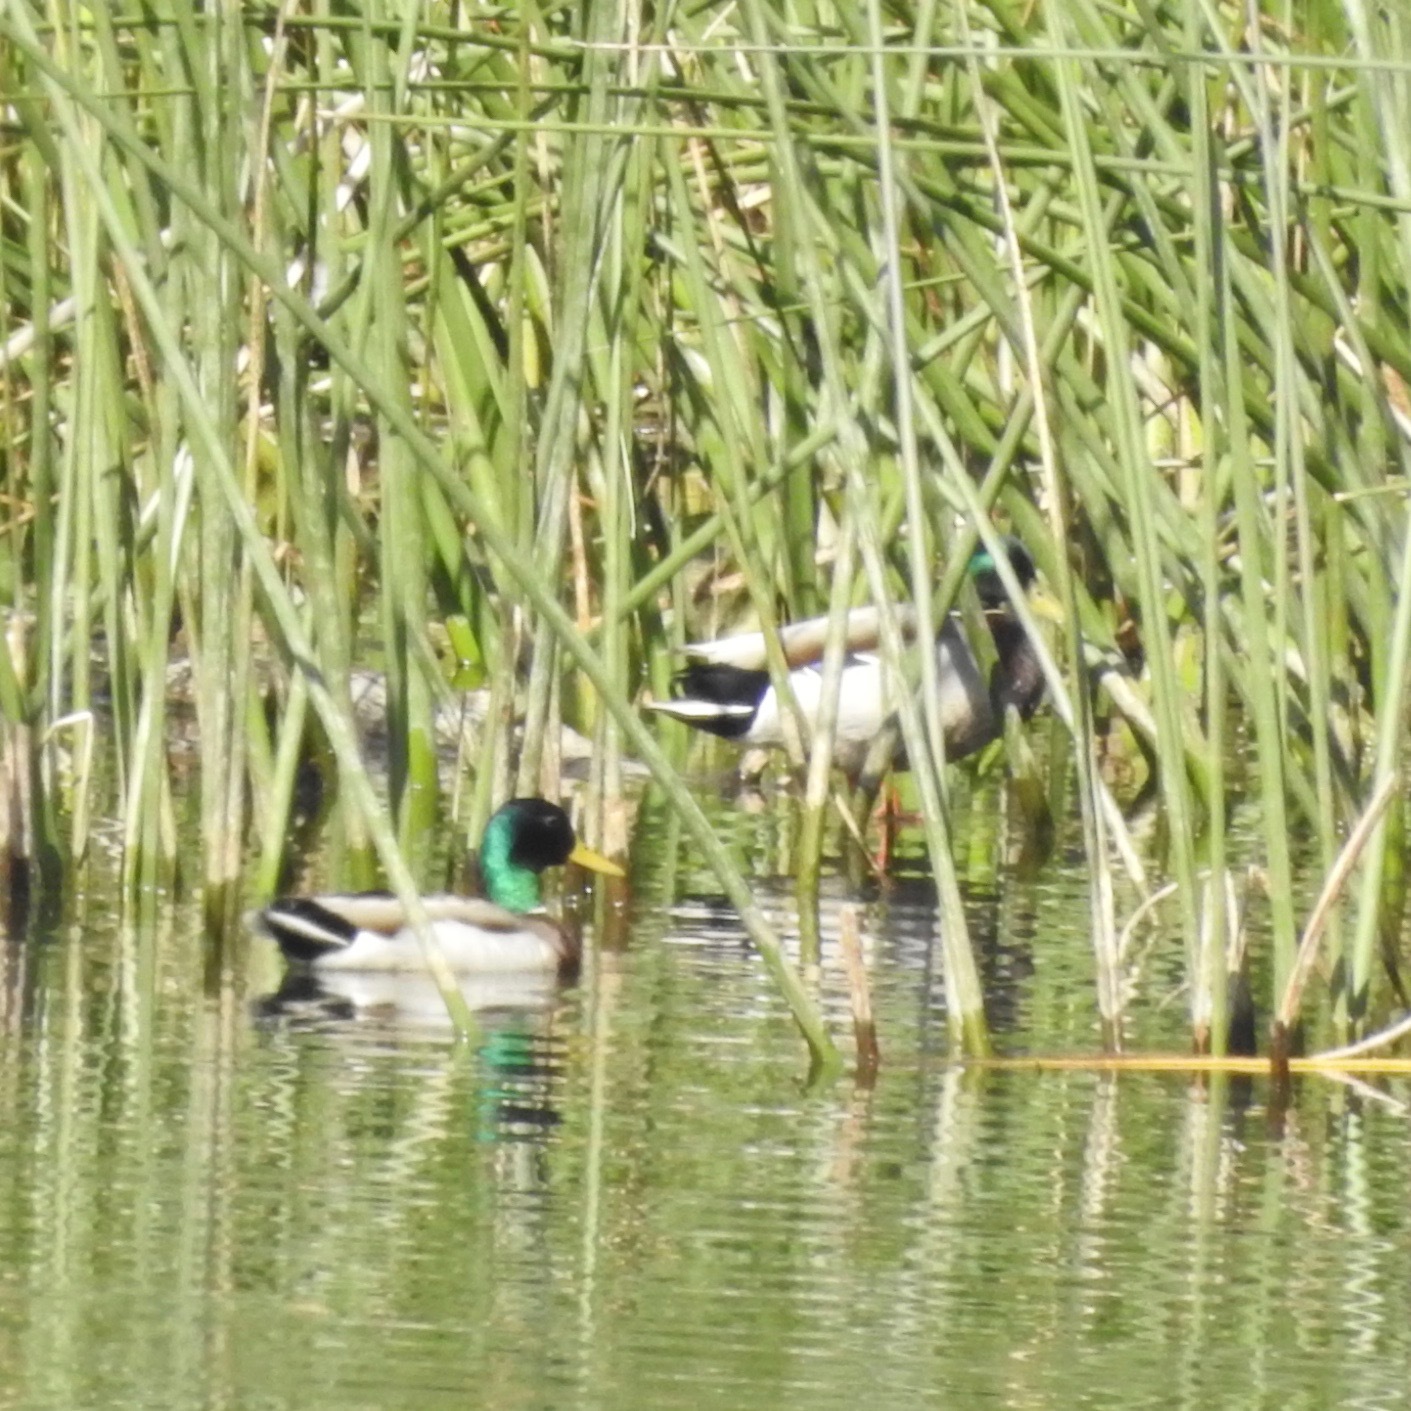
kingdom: Animalia
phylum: Chordata
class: Aves
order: Anseriformes
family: Anatidae
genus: Anas
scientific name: Anas platyrhynchos
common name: Mallard
